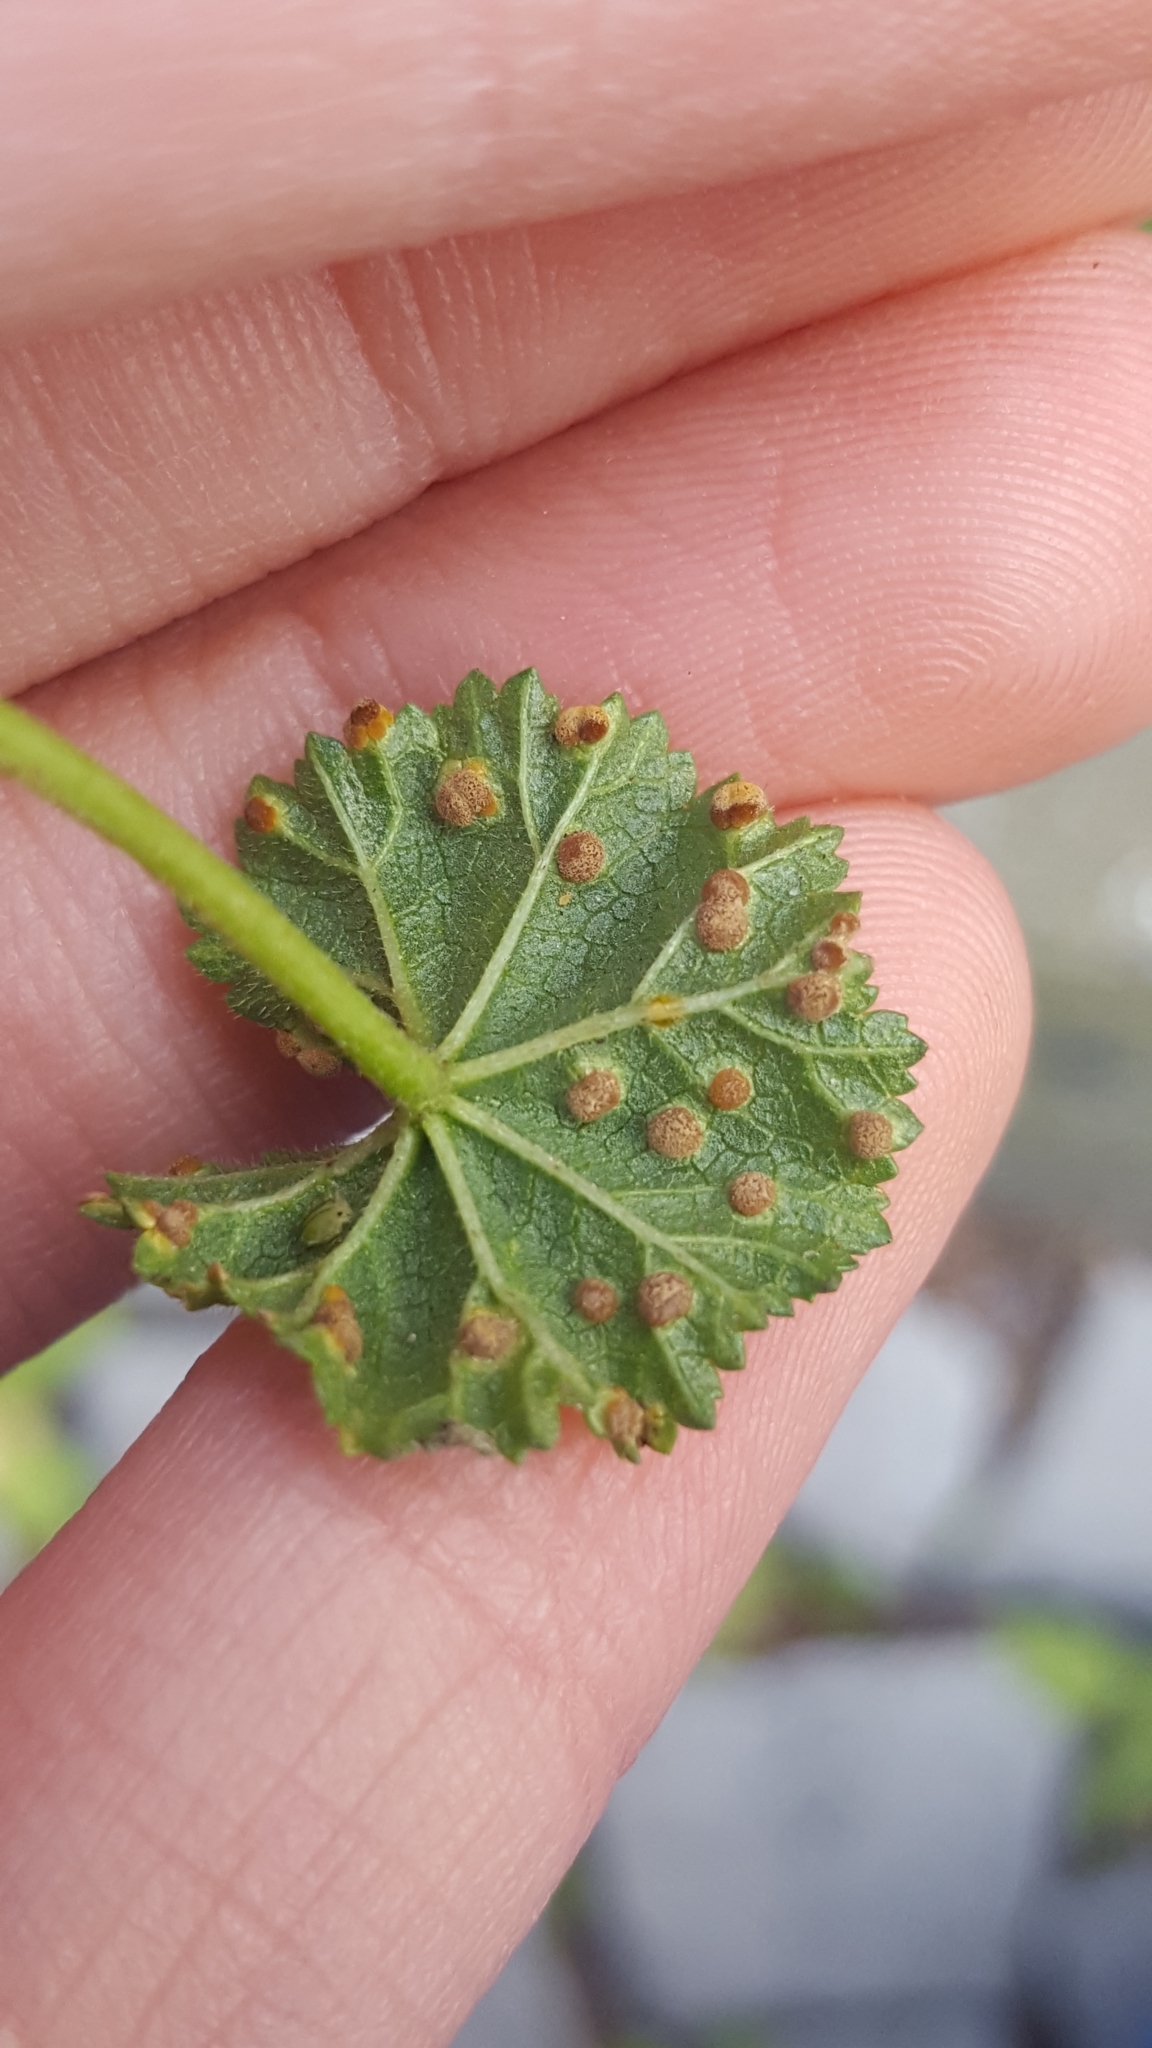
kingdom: Fungi
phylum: Basidiomycota
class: Pucciniomycetes
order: Pucciniales
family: Pucciniaceae
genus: Puccinia
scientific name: Puccinia malvacearum
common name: Hollyhock rust
